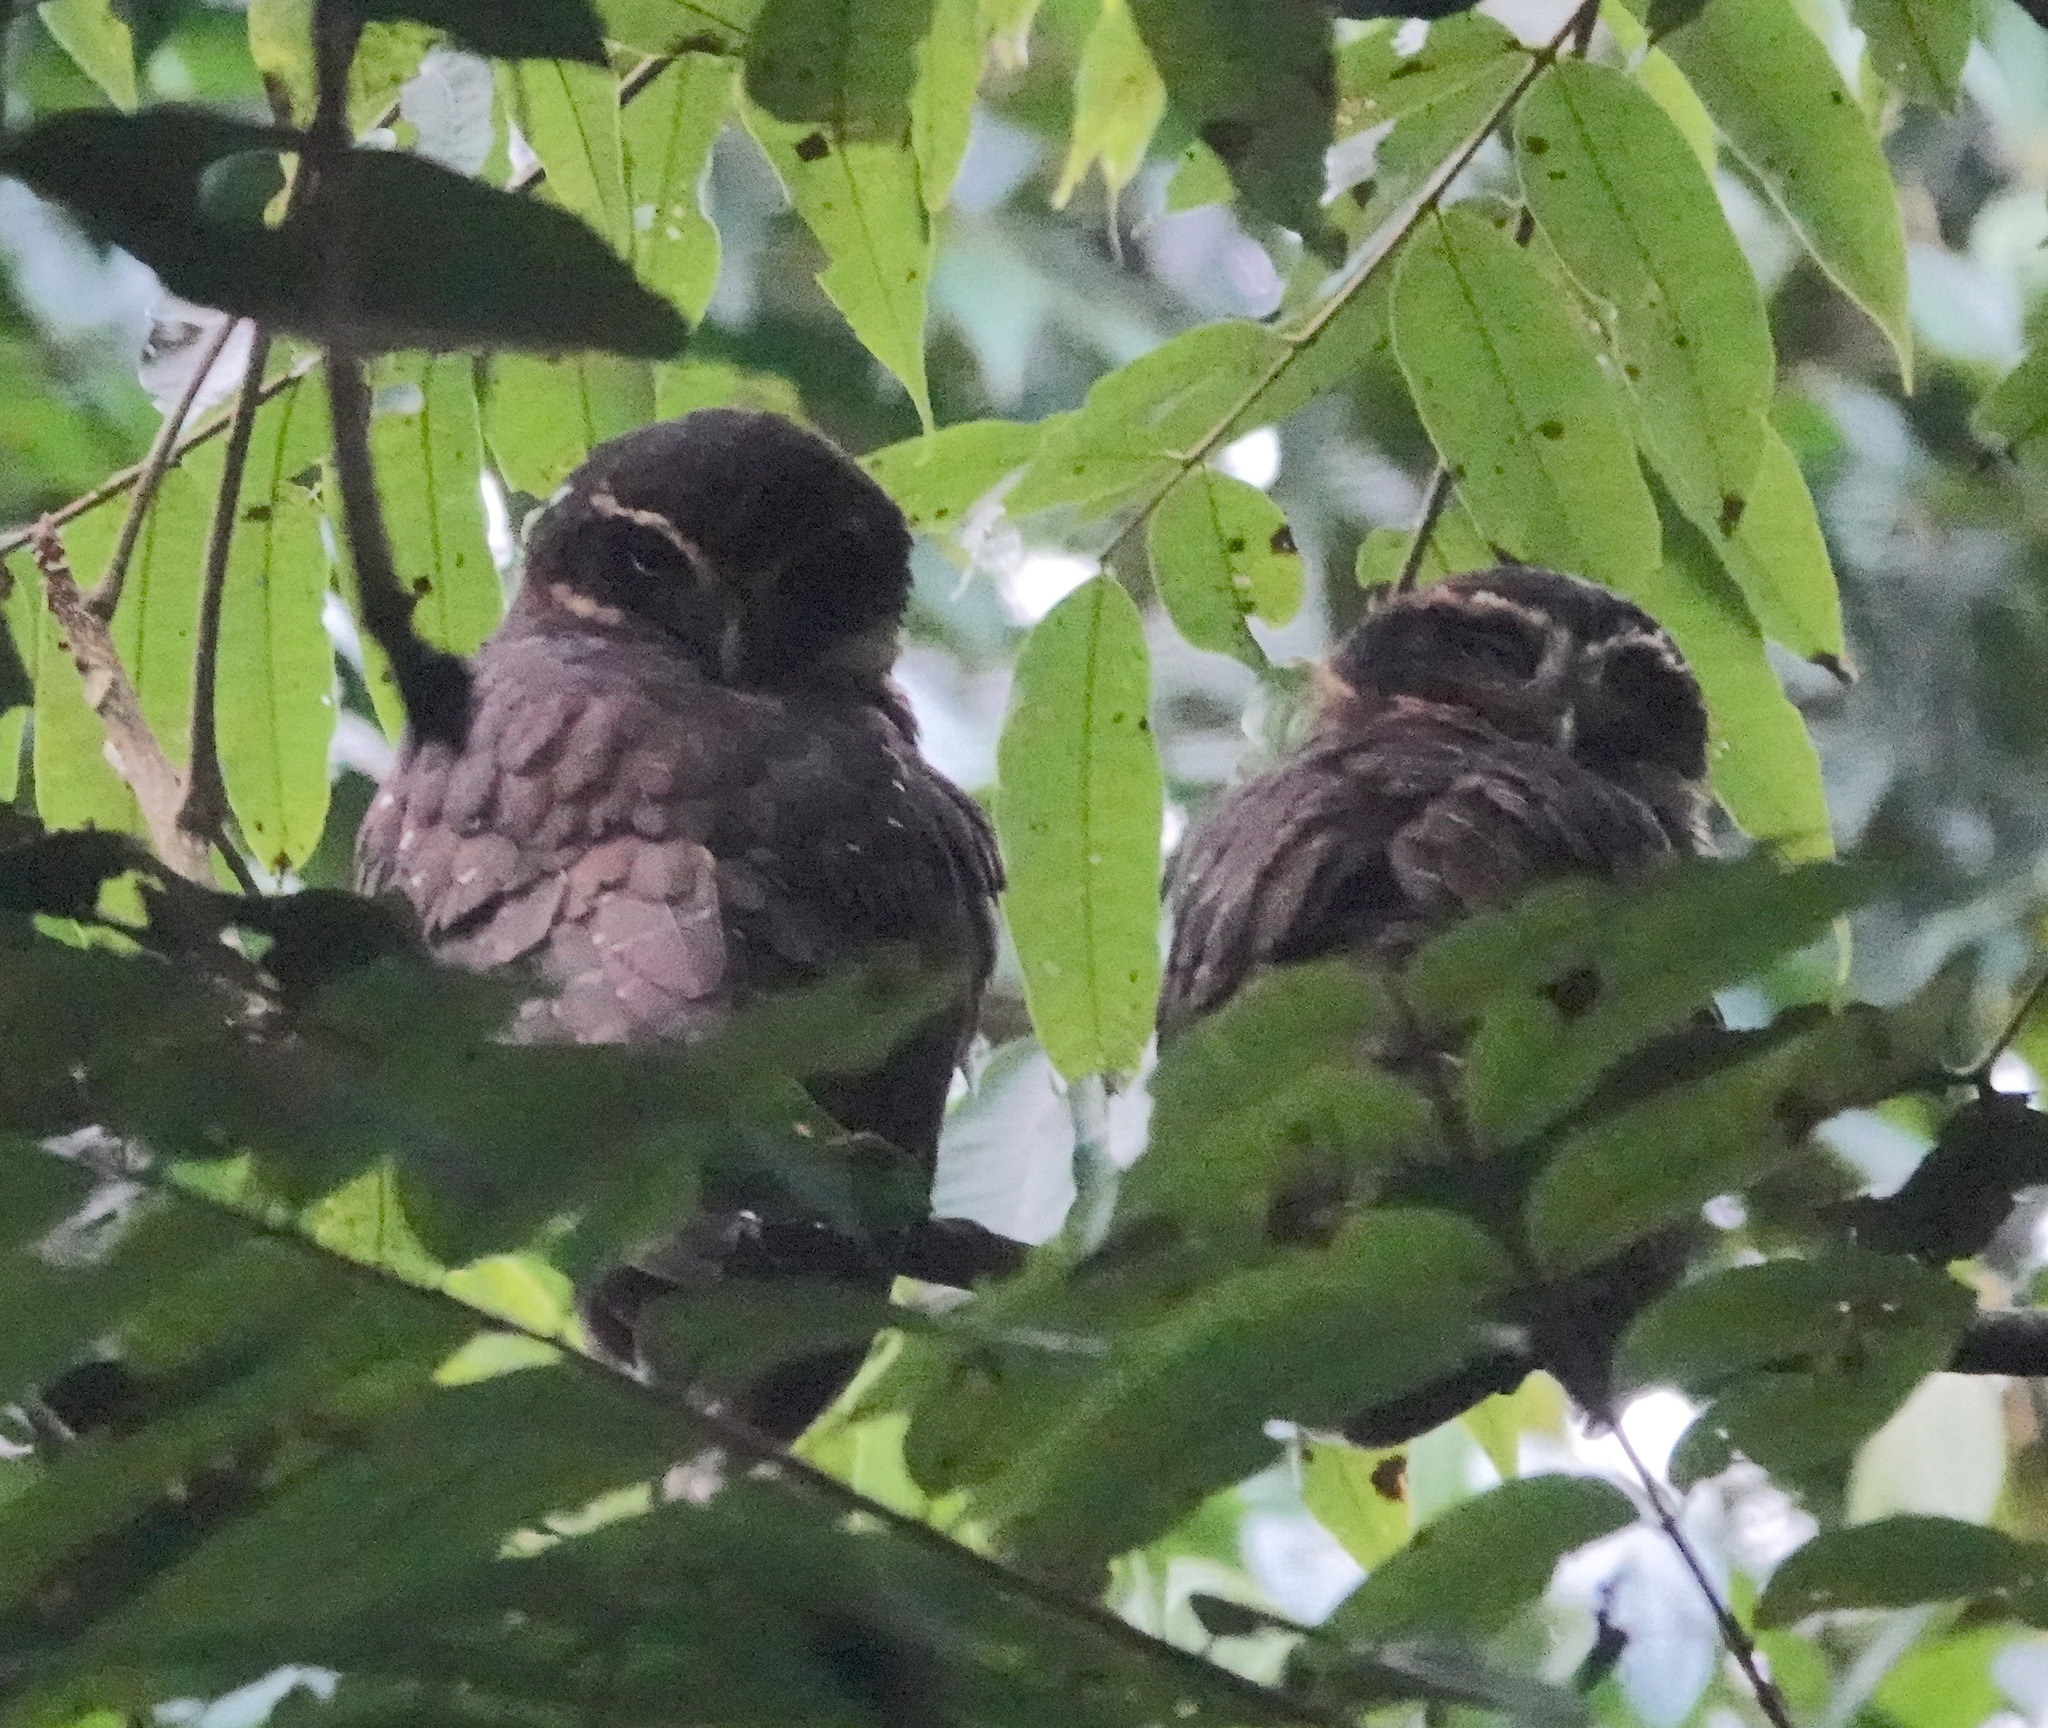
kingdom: Animalia
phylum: Chordata
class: Aves
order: Strigiformes
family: Strigidae
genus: Pulsatrix
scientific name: Pulsatrix melanota
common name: Band-bellied owl
